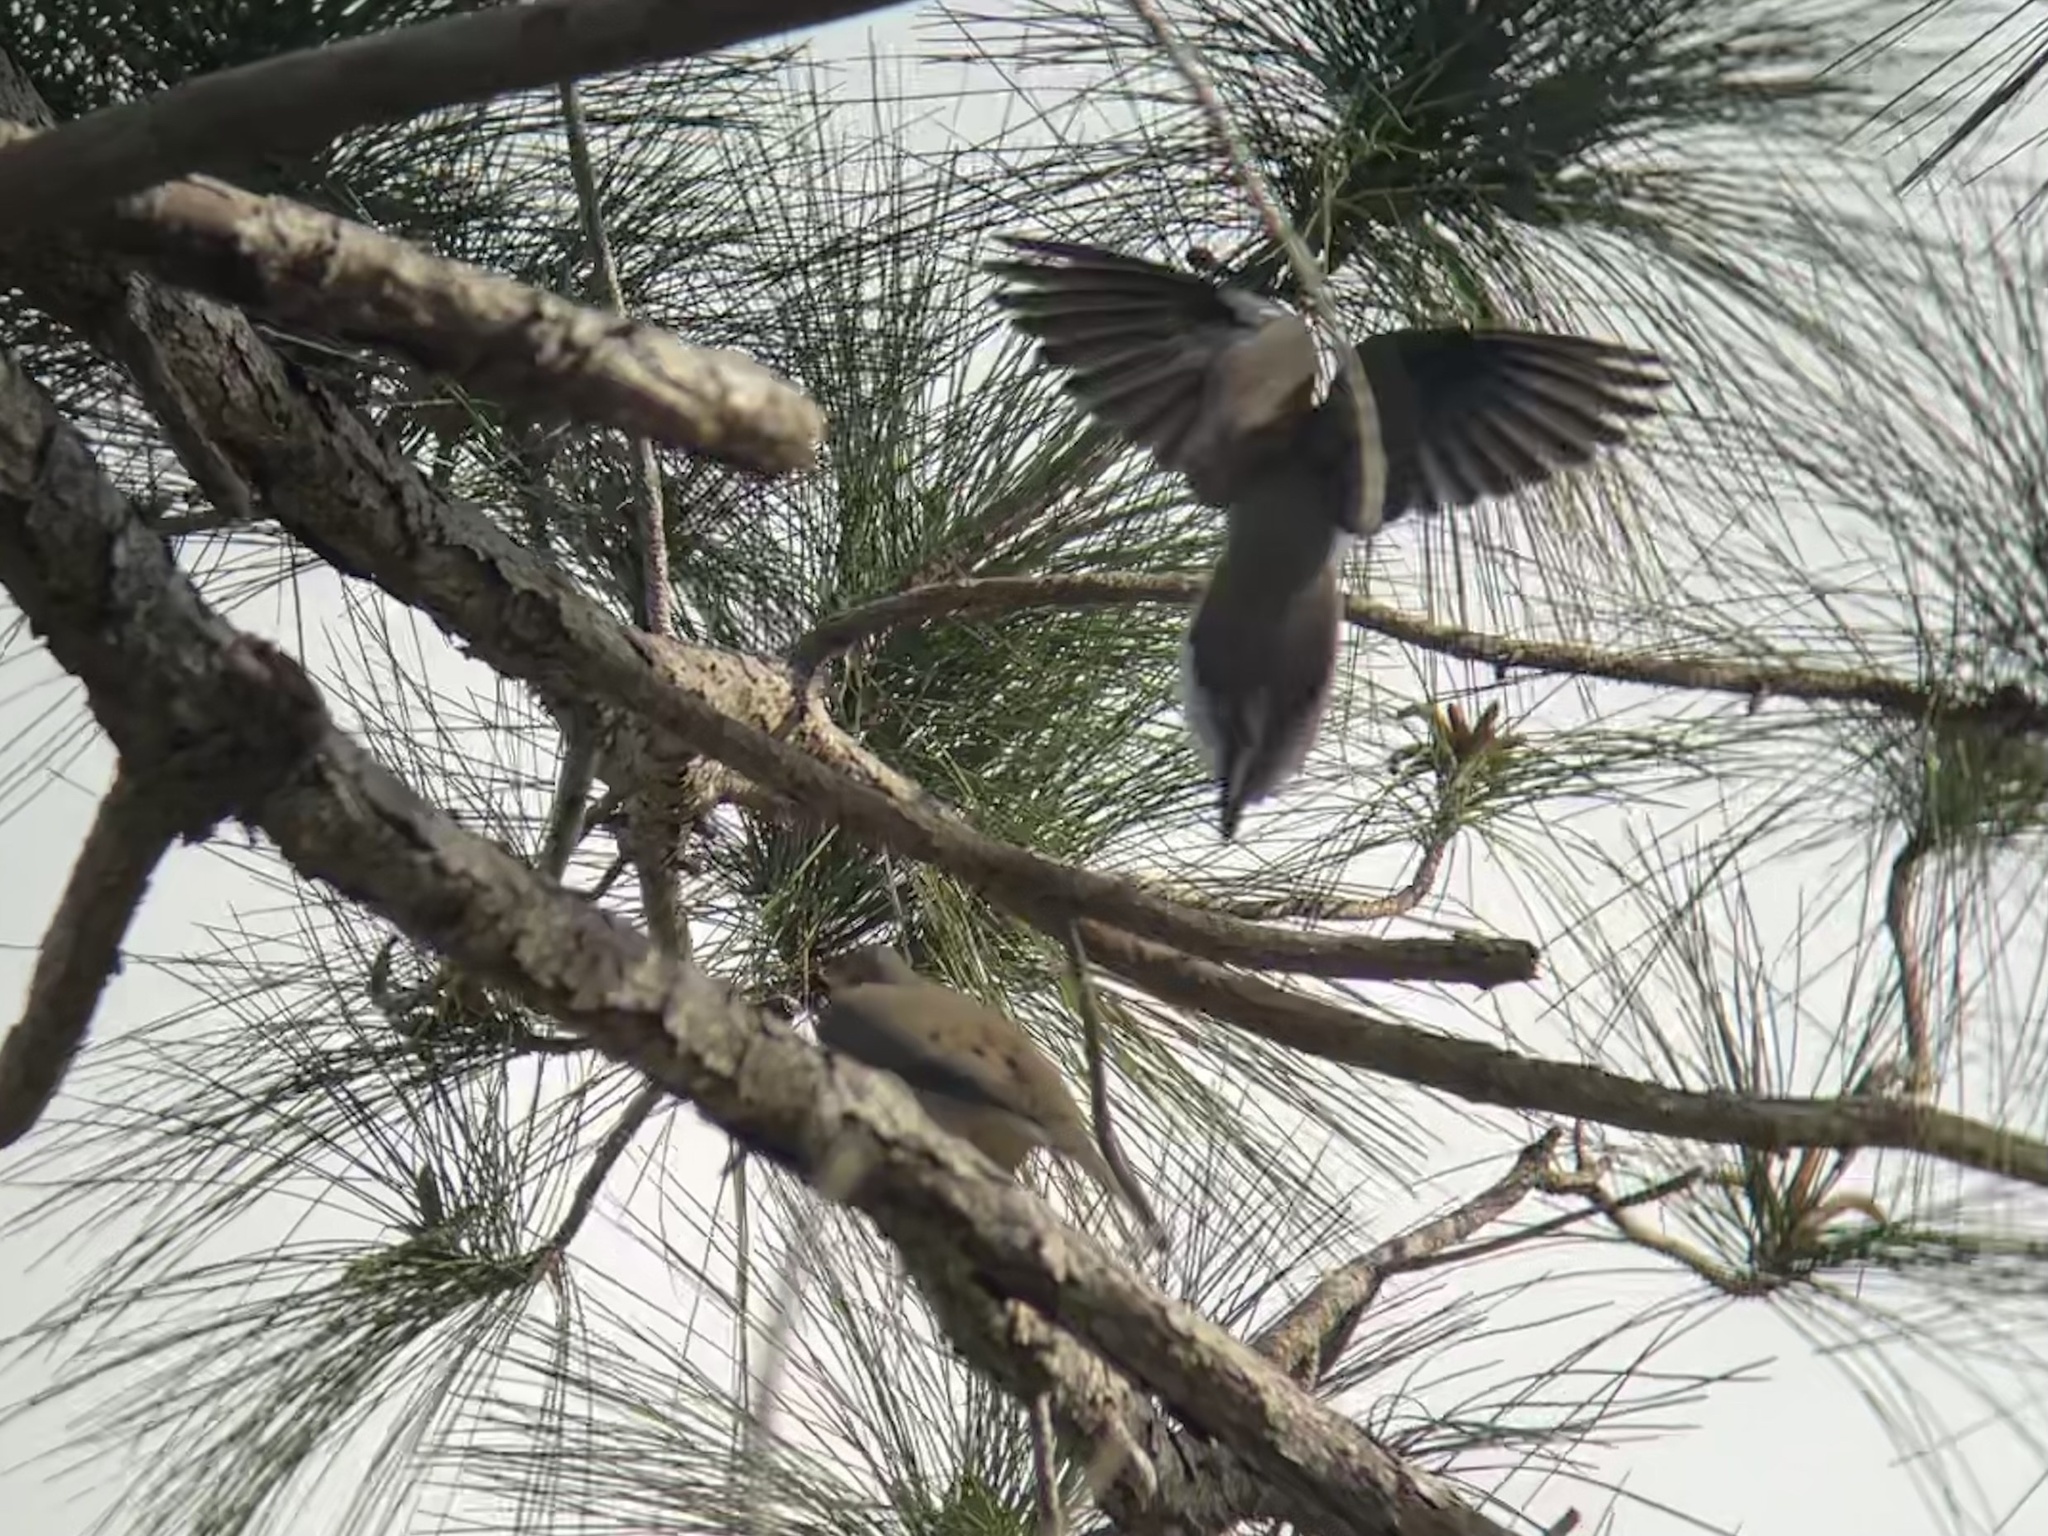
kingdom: Animalia
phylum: Chordata
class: Aves
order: Columbiformes
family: Columbidae
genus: Zenaida
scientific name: Zenaida macroura
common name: Mourning dove
